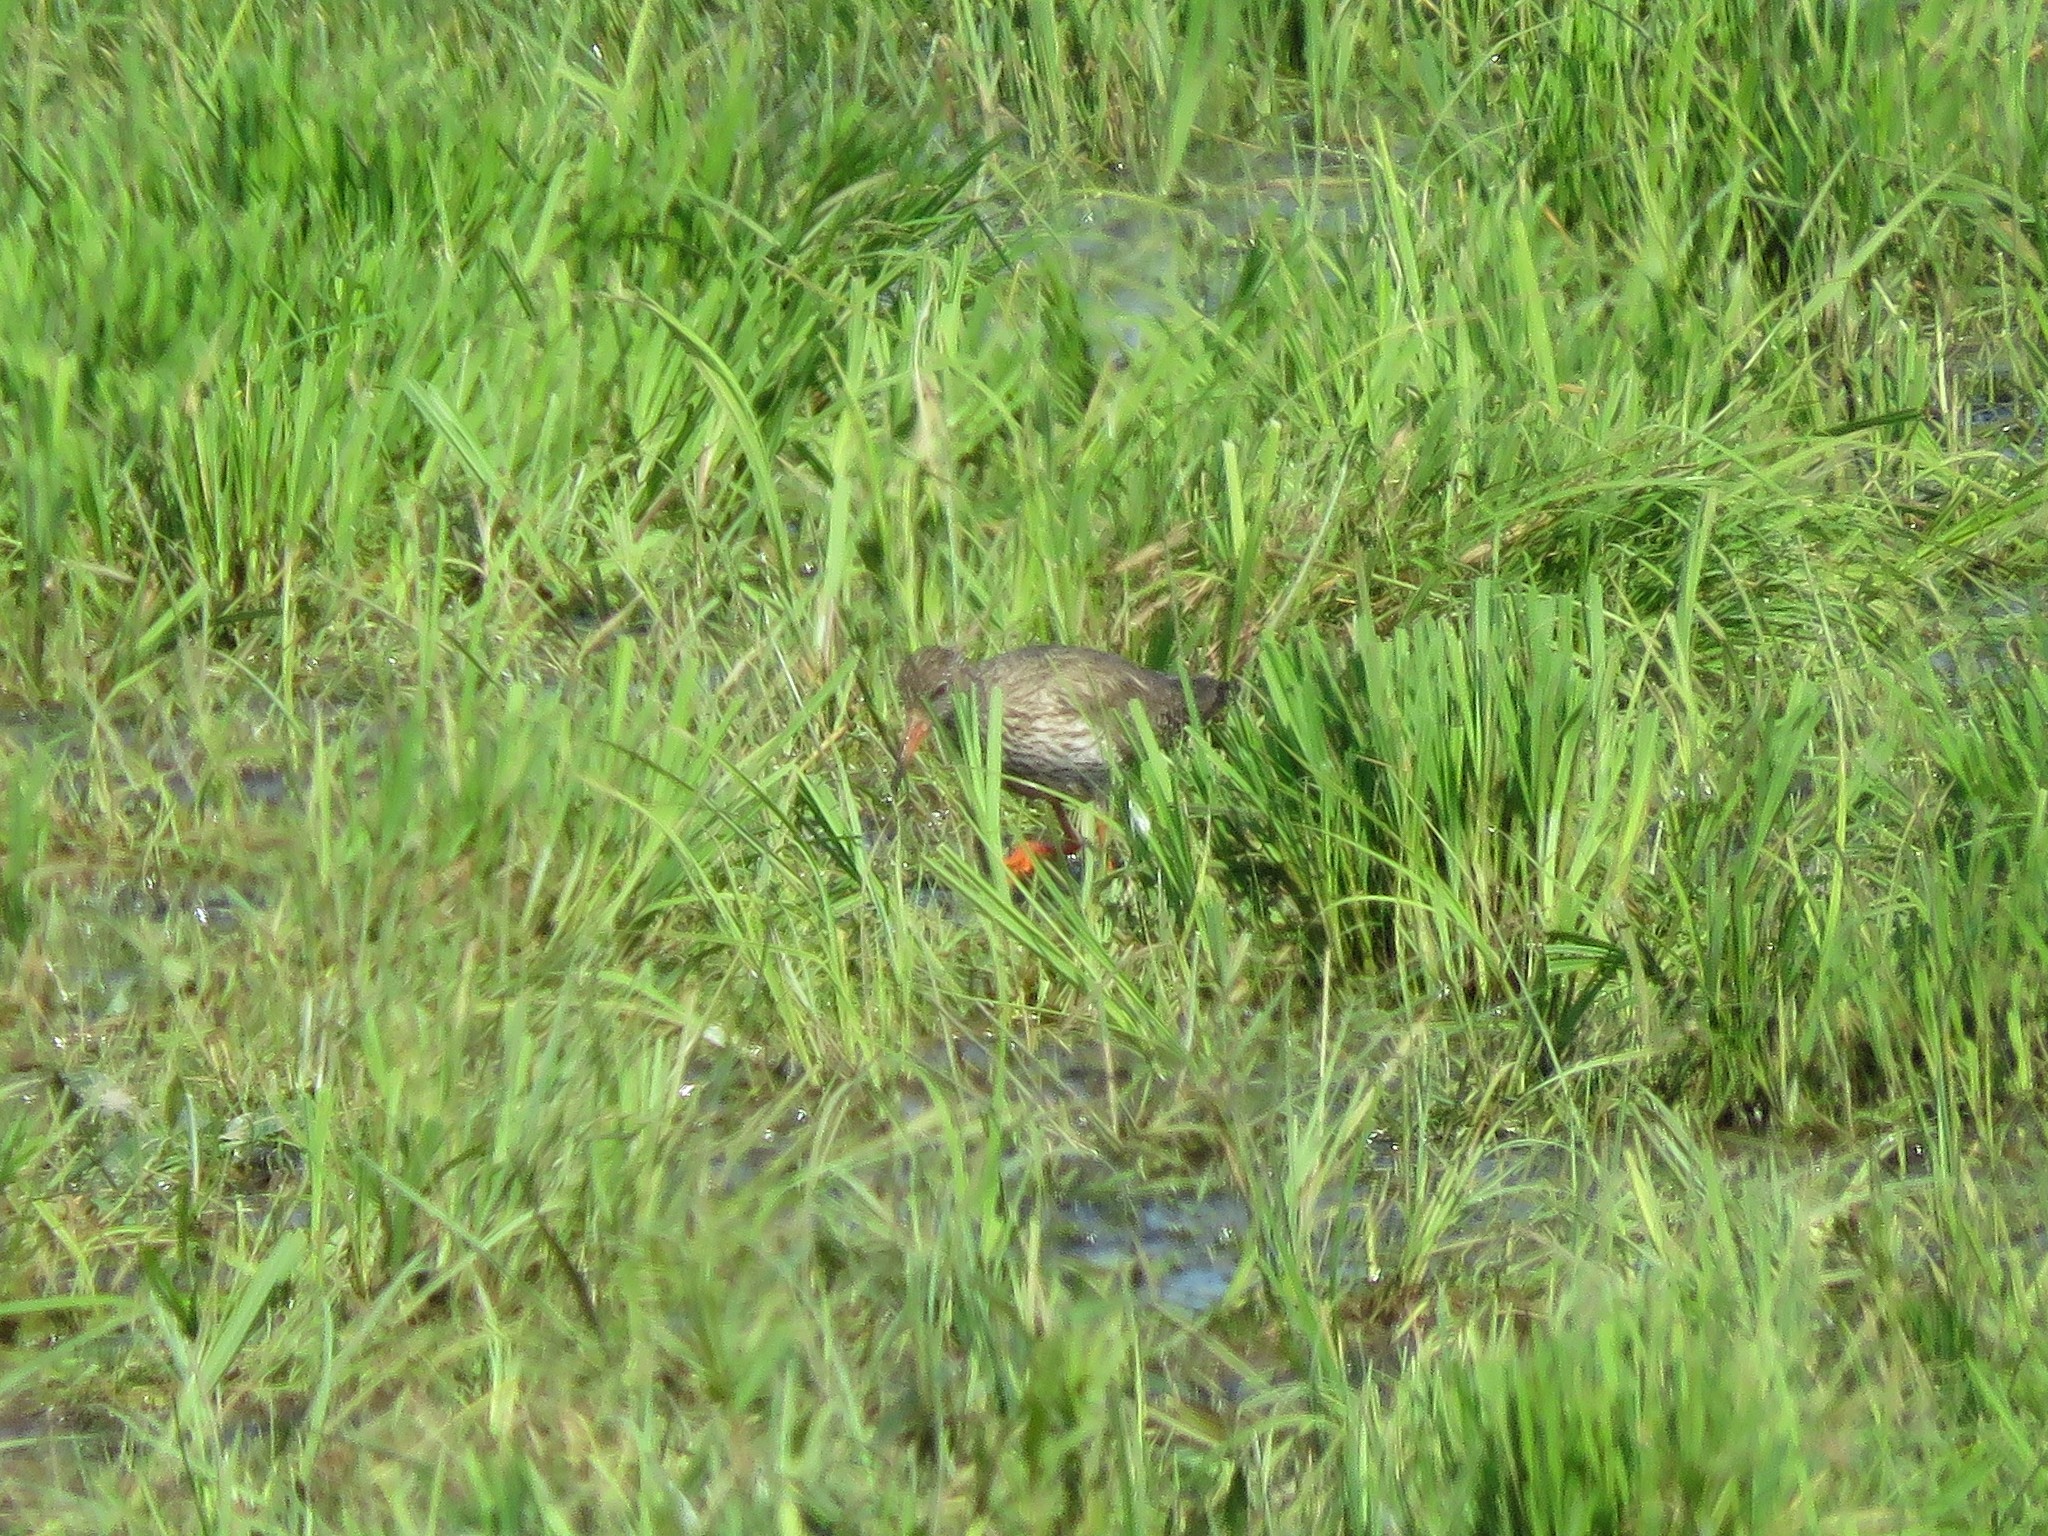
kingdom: Animalia
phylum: Chordata
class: Aves
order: Charadriiformes
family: Scolopacidae
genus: Tringa
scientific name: Tringa totanus
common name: Common redshank
